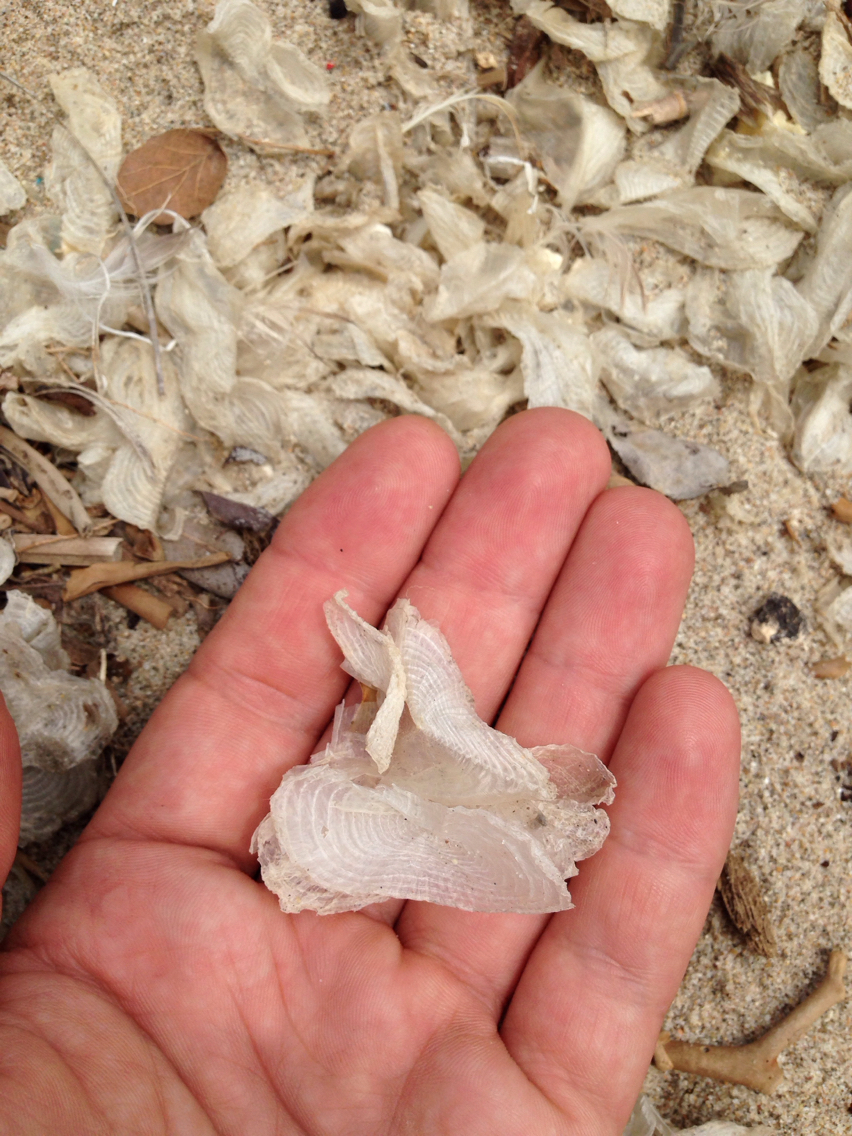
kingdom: Animalia
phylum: Cnidaria
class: Hydrozoa
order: Anthoathecata
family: Porpitidae
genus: Velella
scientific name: Velella velella
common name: By-the-wind-sailor
